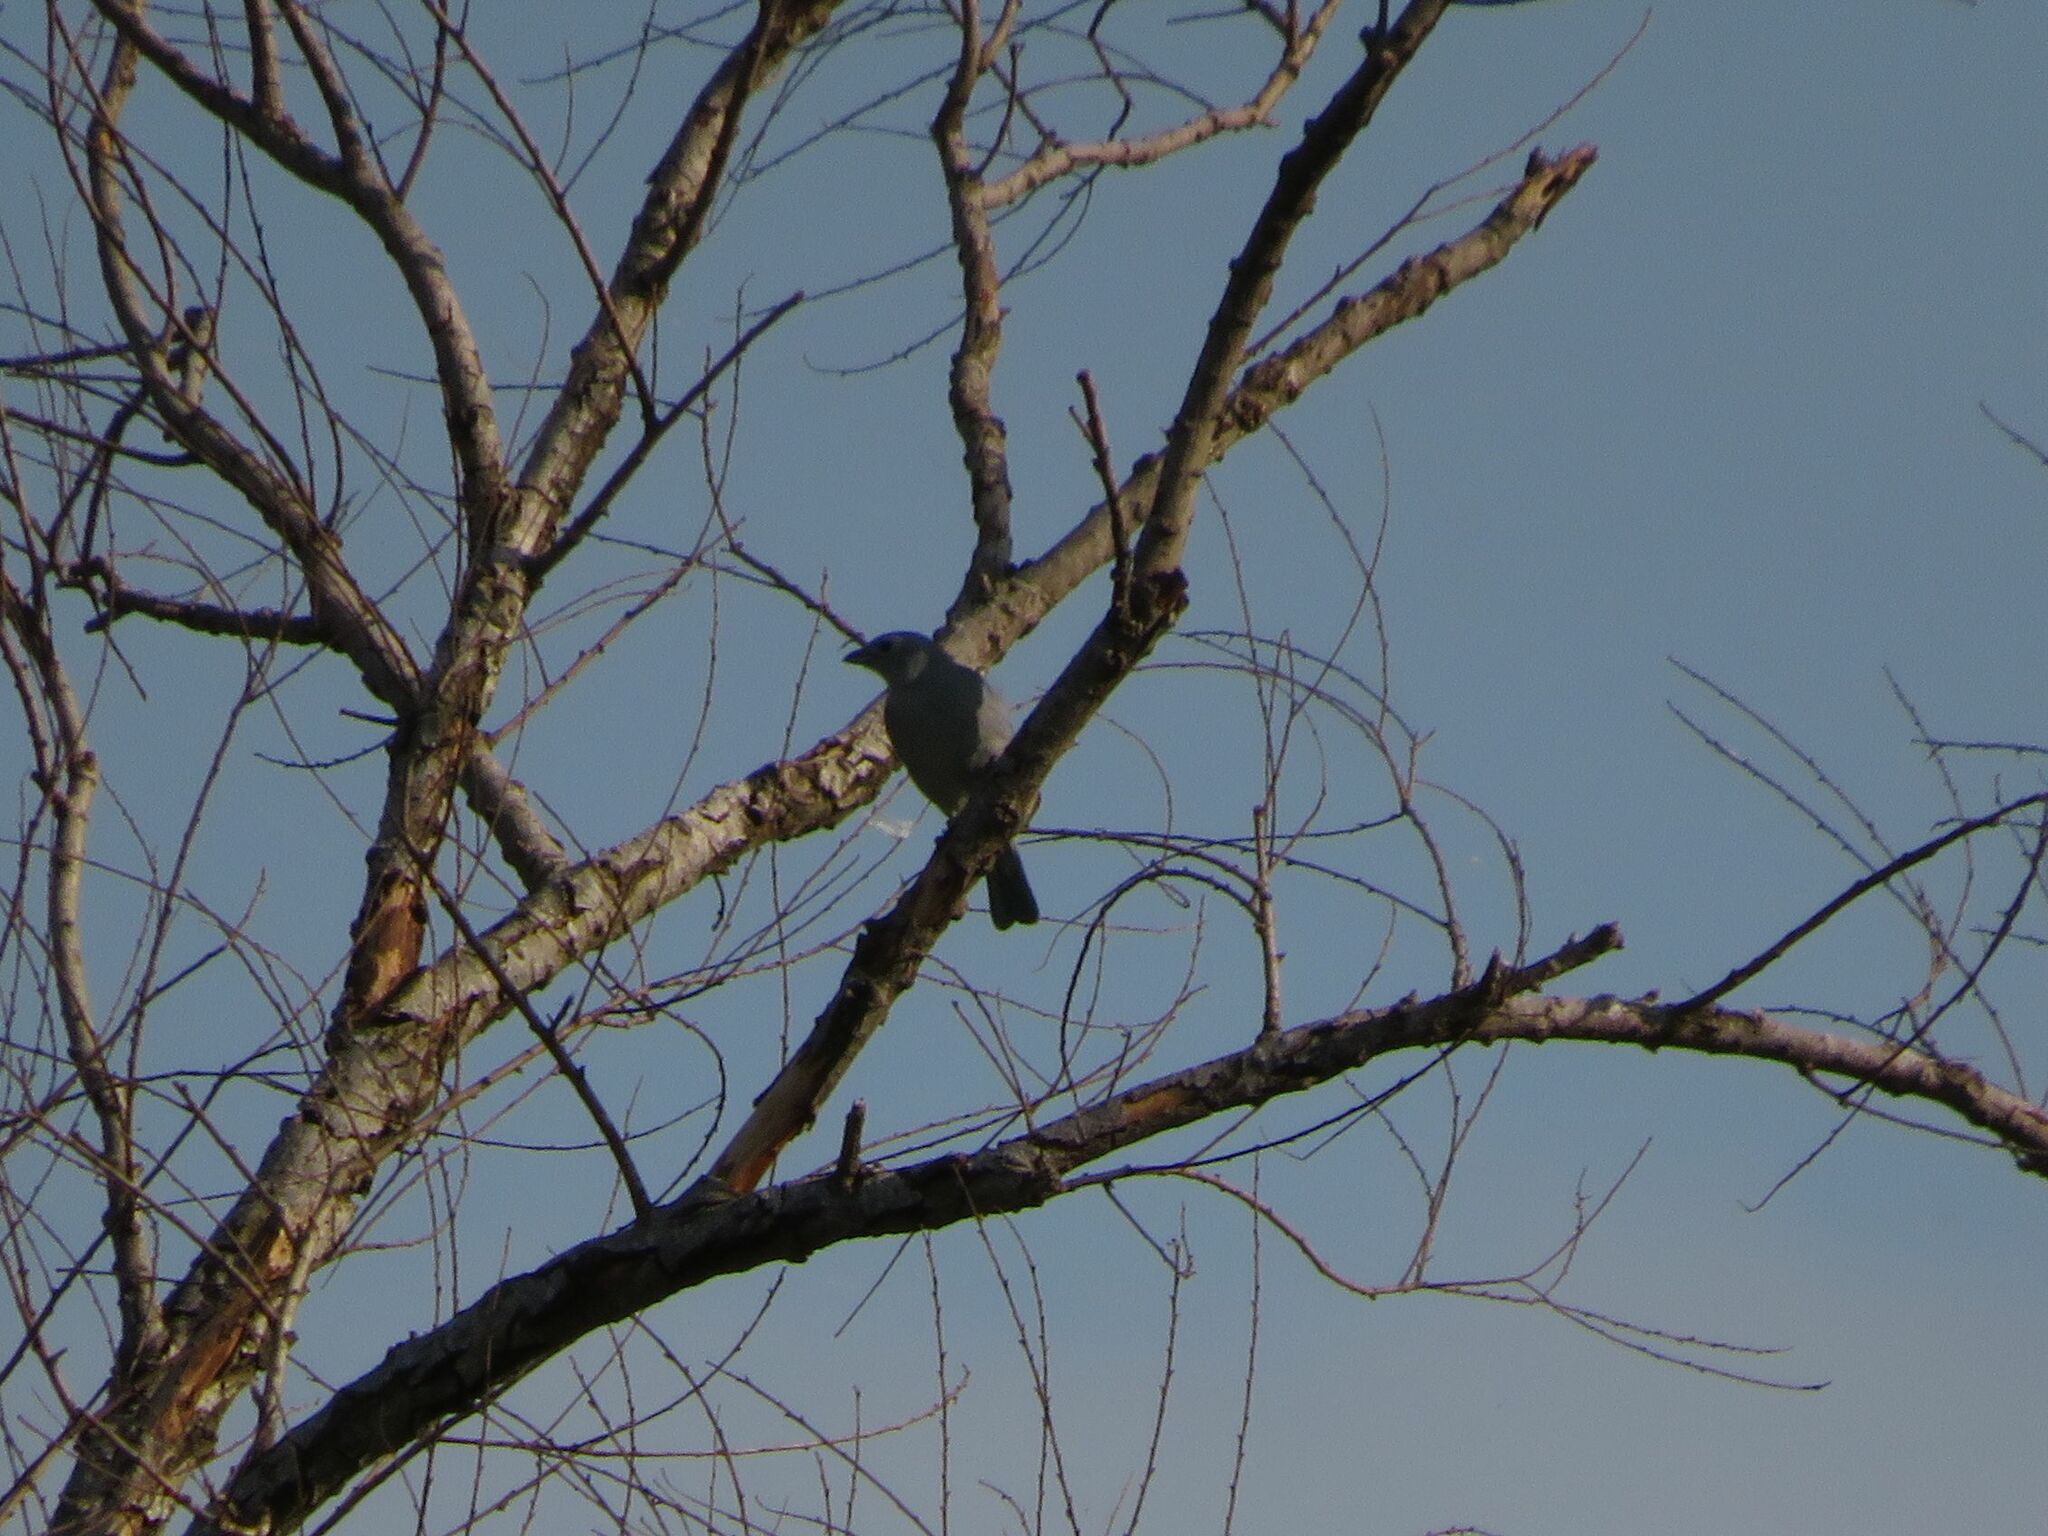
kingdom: Animalia
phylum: Chordata
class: Aves
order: Passeriformes
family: Thraupidae
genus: Thraupis
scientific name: Thraupis sayaca
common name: Sayaca tanager
